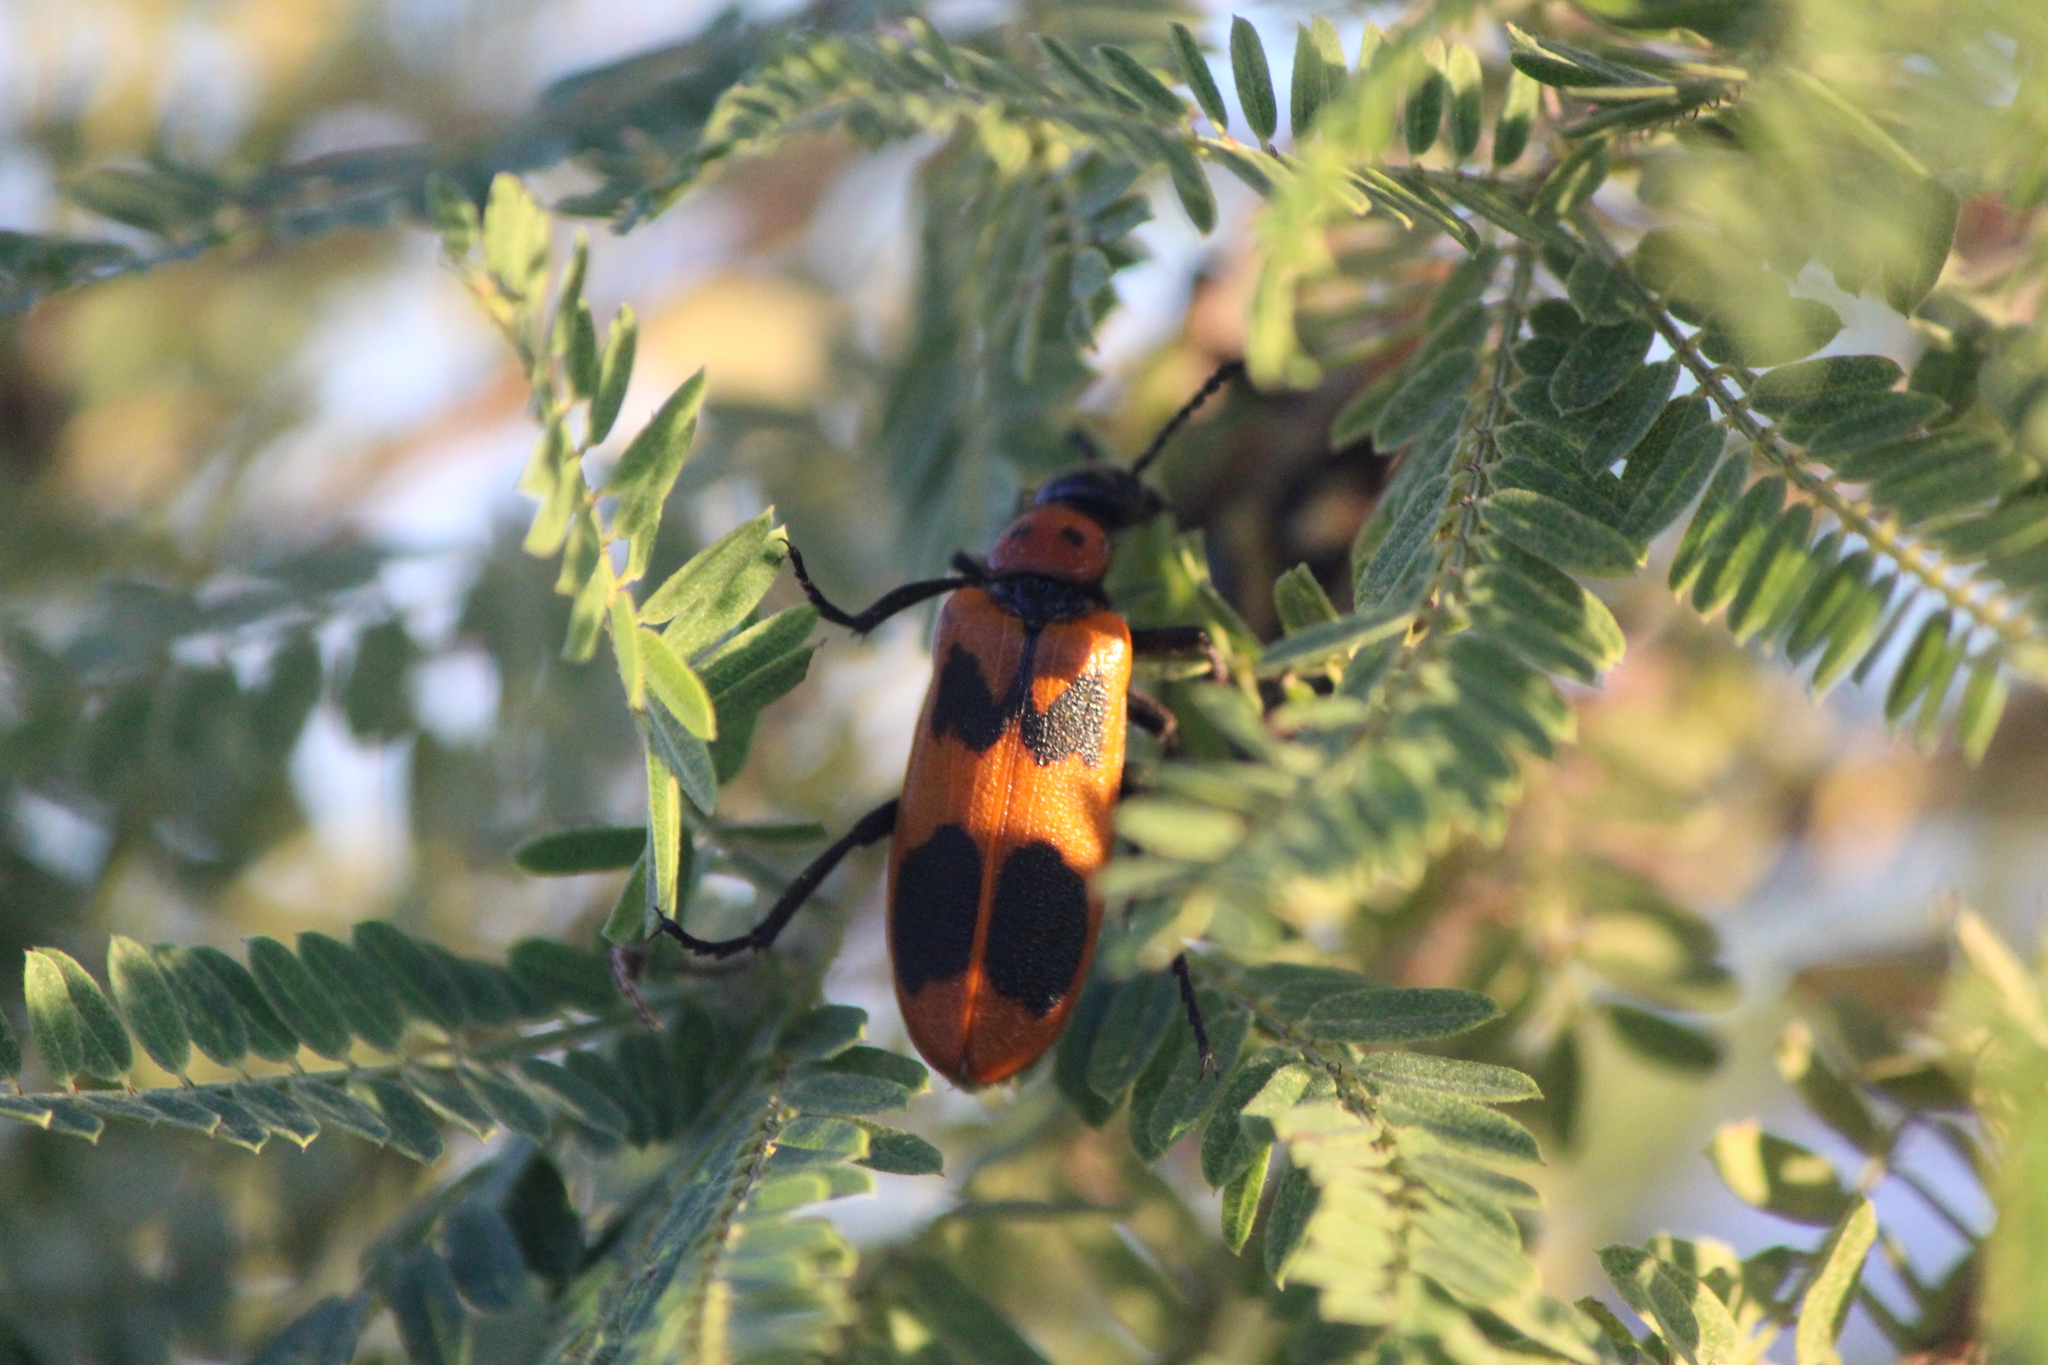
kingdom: Animalia
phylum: Arthropoda
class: Insecta
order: Coleoptera
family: Meloidae
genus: Lytta
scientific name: Lytta quadrimaculata
